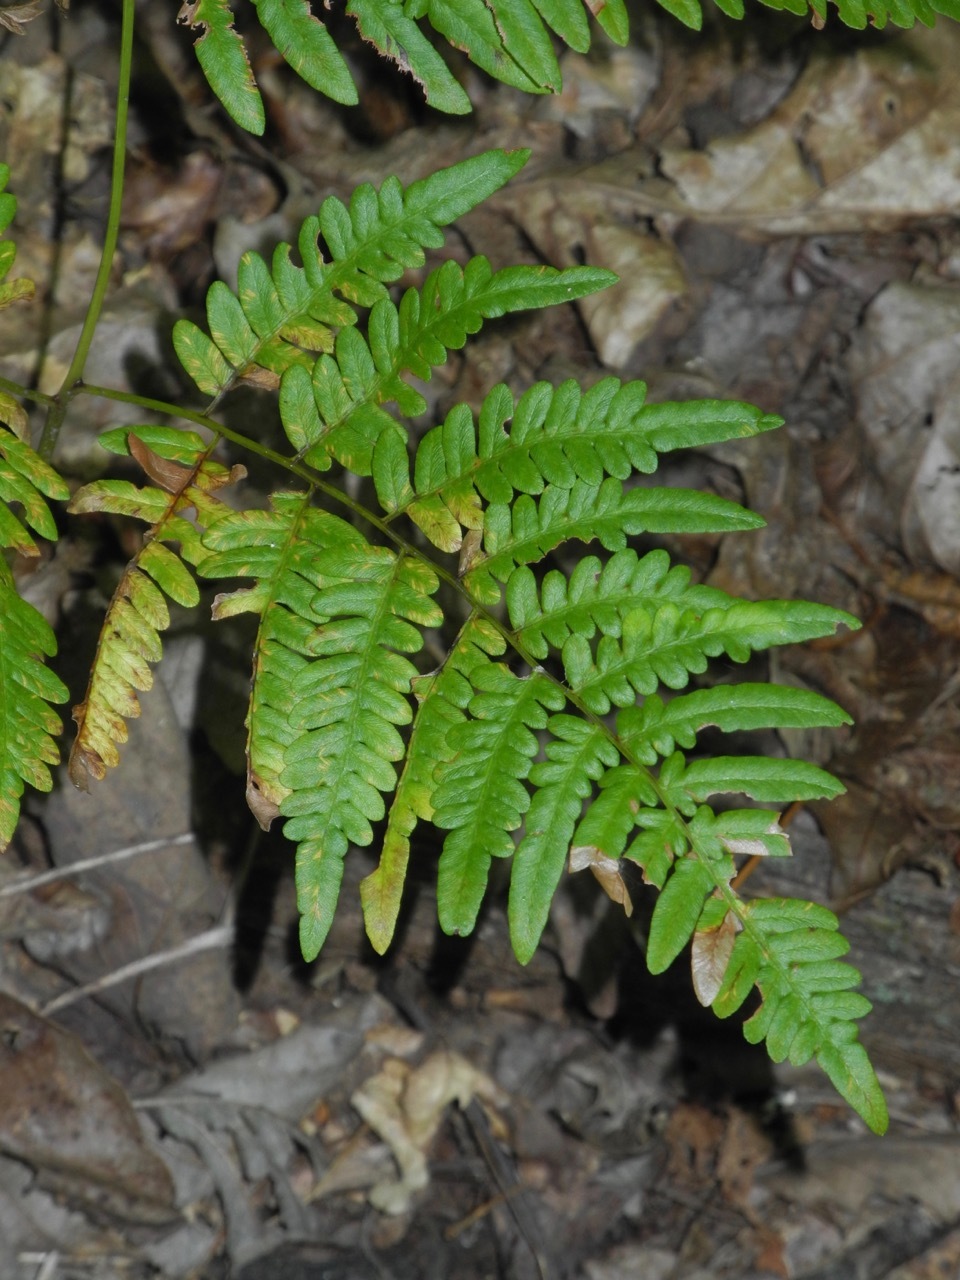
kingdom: Plantae
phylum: Tracheophyta
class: Polypodiopsida
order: Polypodiales
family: Dennstaedtiaceae
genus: Pteridium
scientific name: Pteridium aquilinum
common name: Bracken
